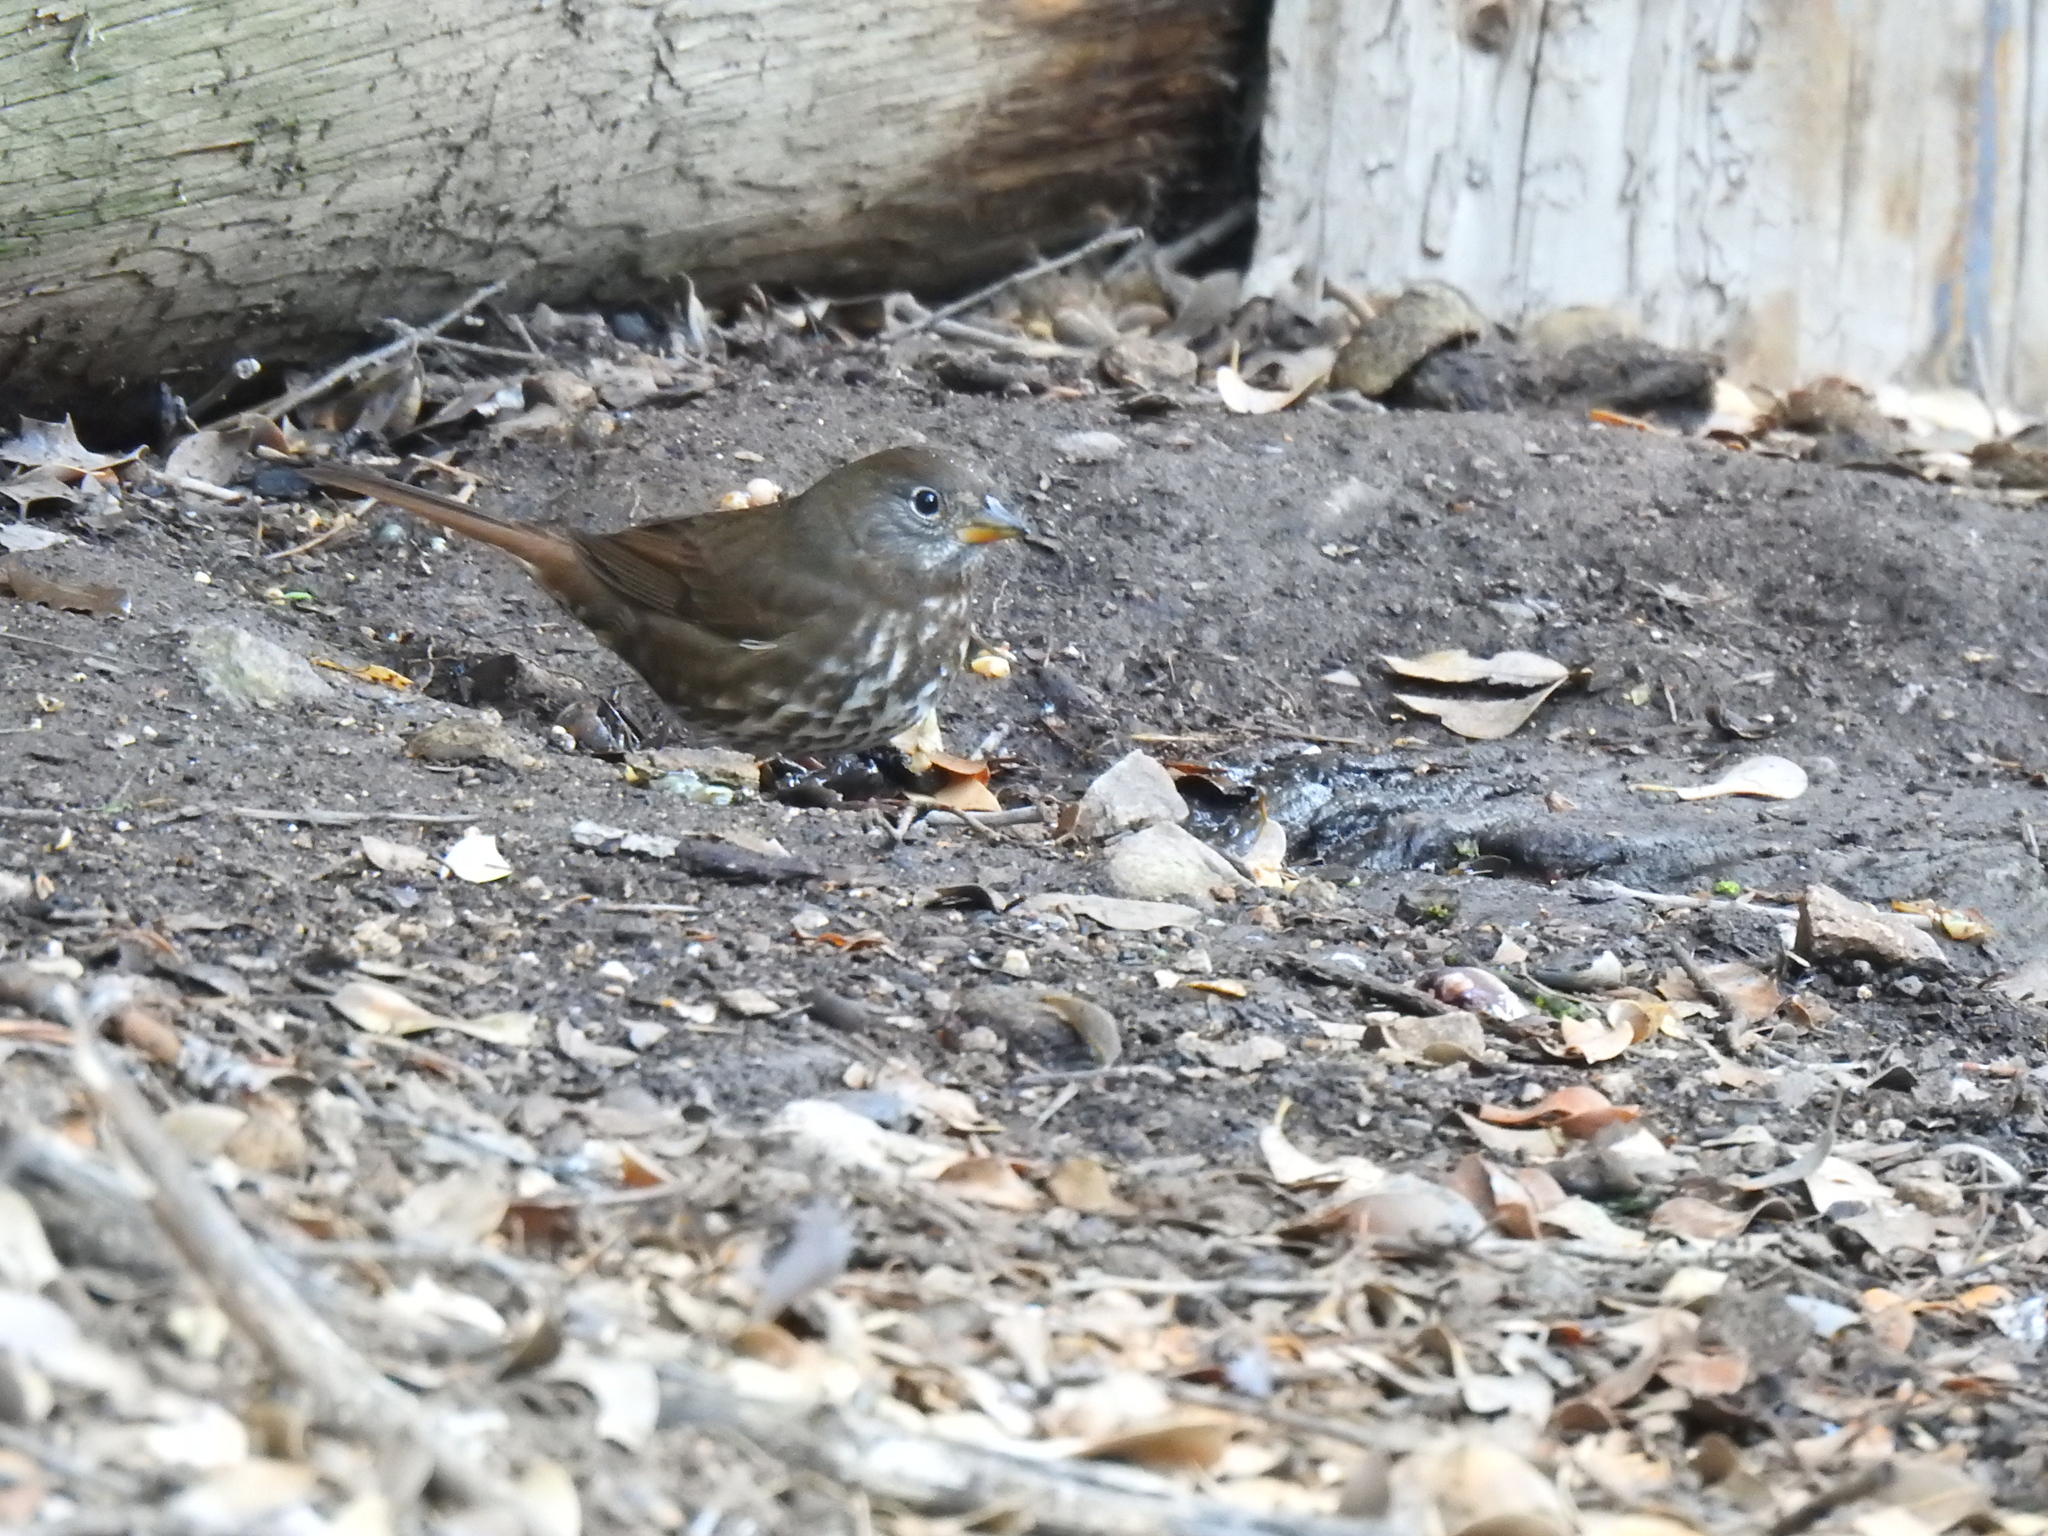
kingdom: Animalia
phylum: Chordata
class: Aves
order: Passeriformes
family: Passerellidae
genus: Passerella
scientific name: Passerella iliaca
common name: Fox sparrow
